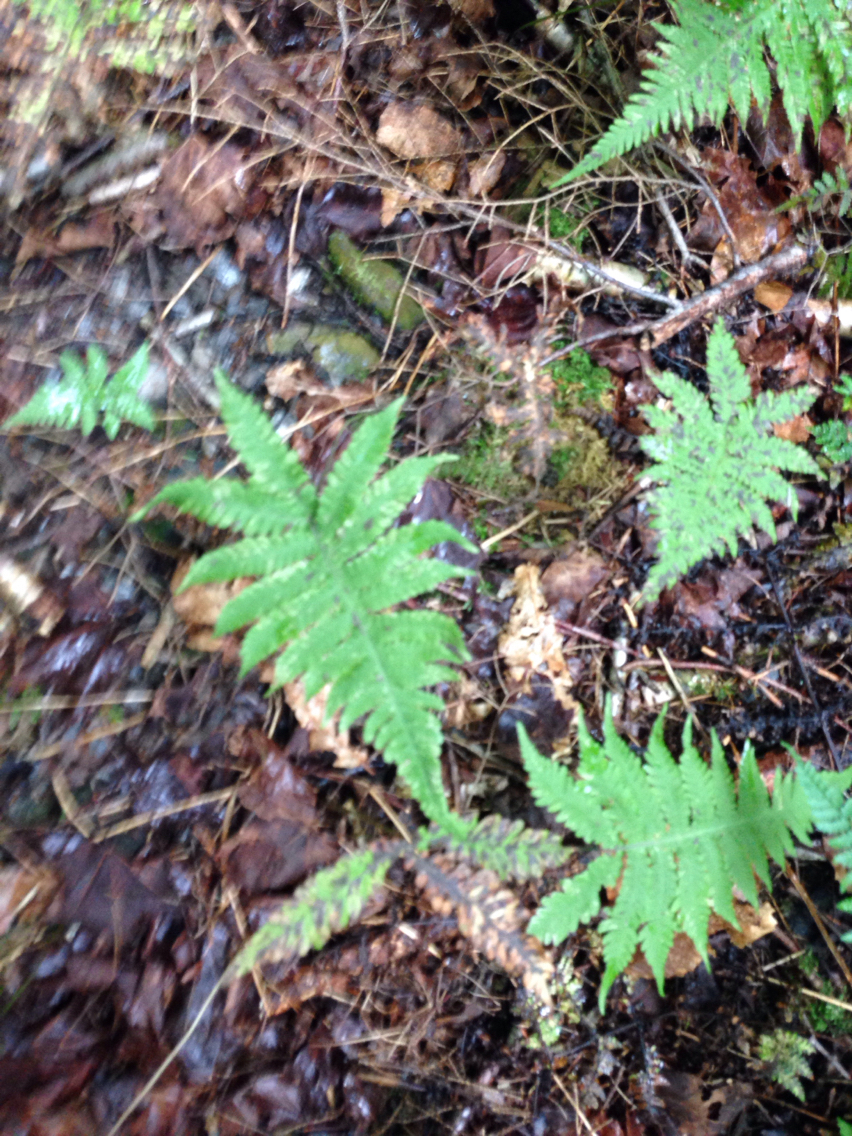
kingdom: Plantae
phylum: Tracheophyta
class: Polypodiopsida
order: Polypodiales
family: Thelypteridaceae
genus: Phegopteris
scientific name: Phegopteris connectilis
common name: Beech fern
